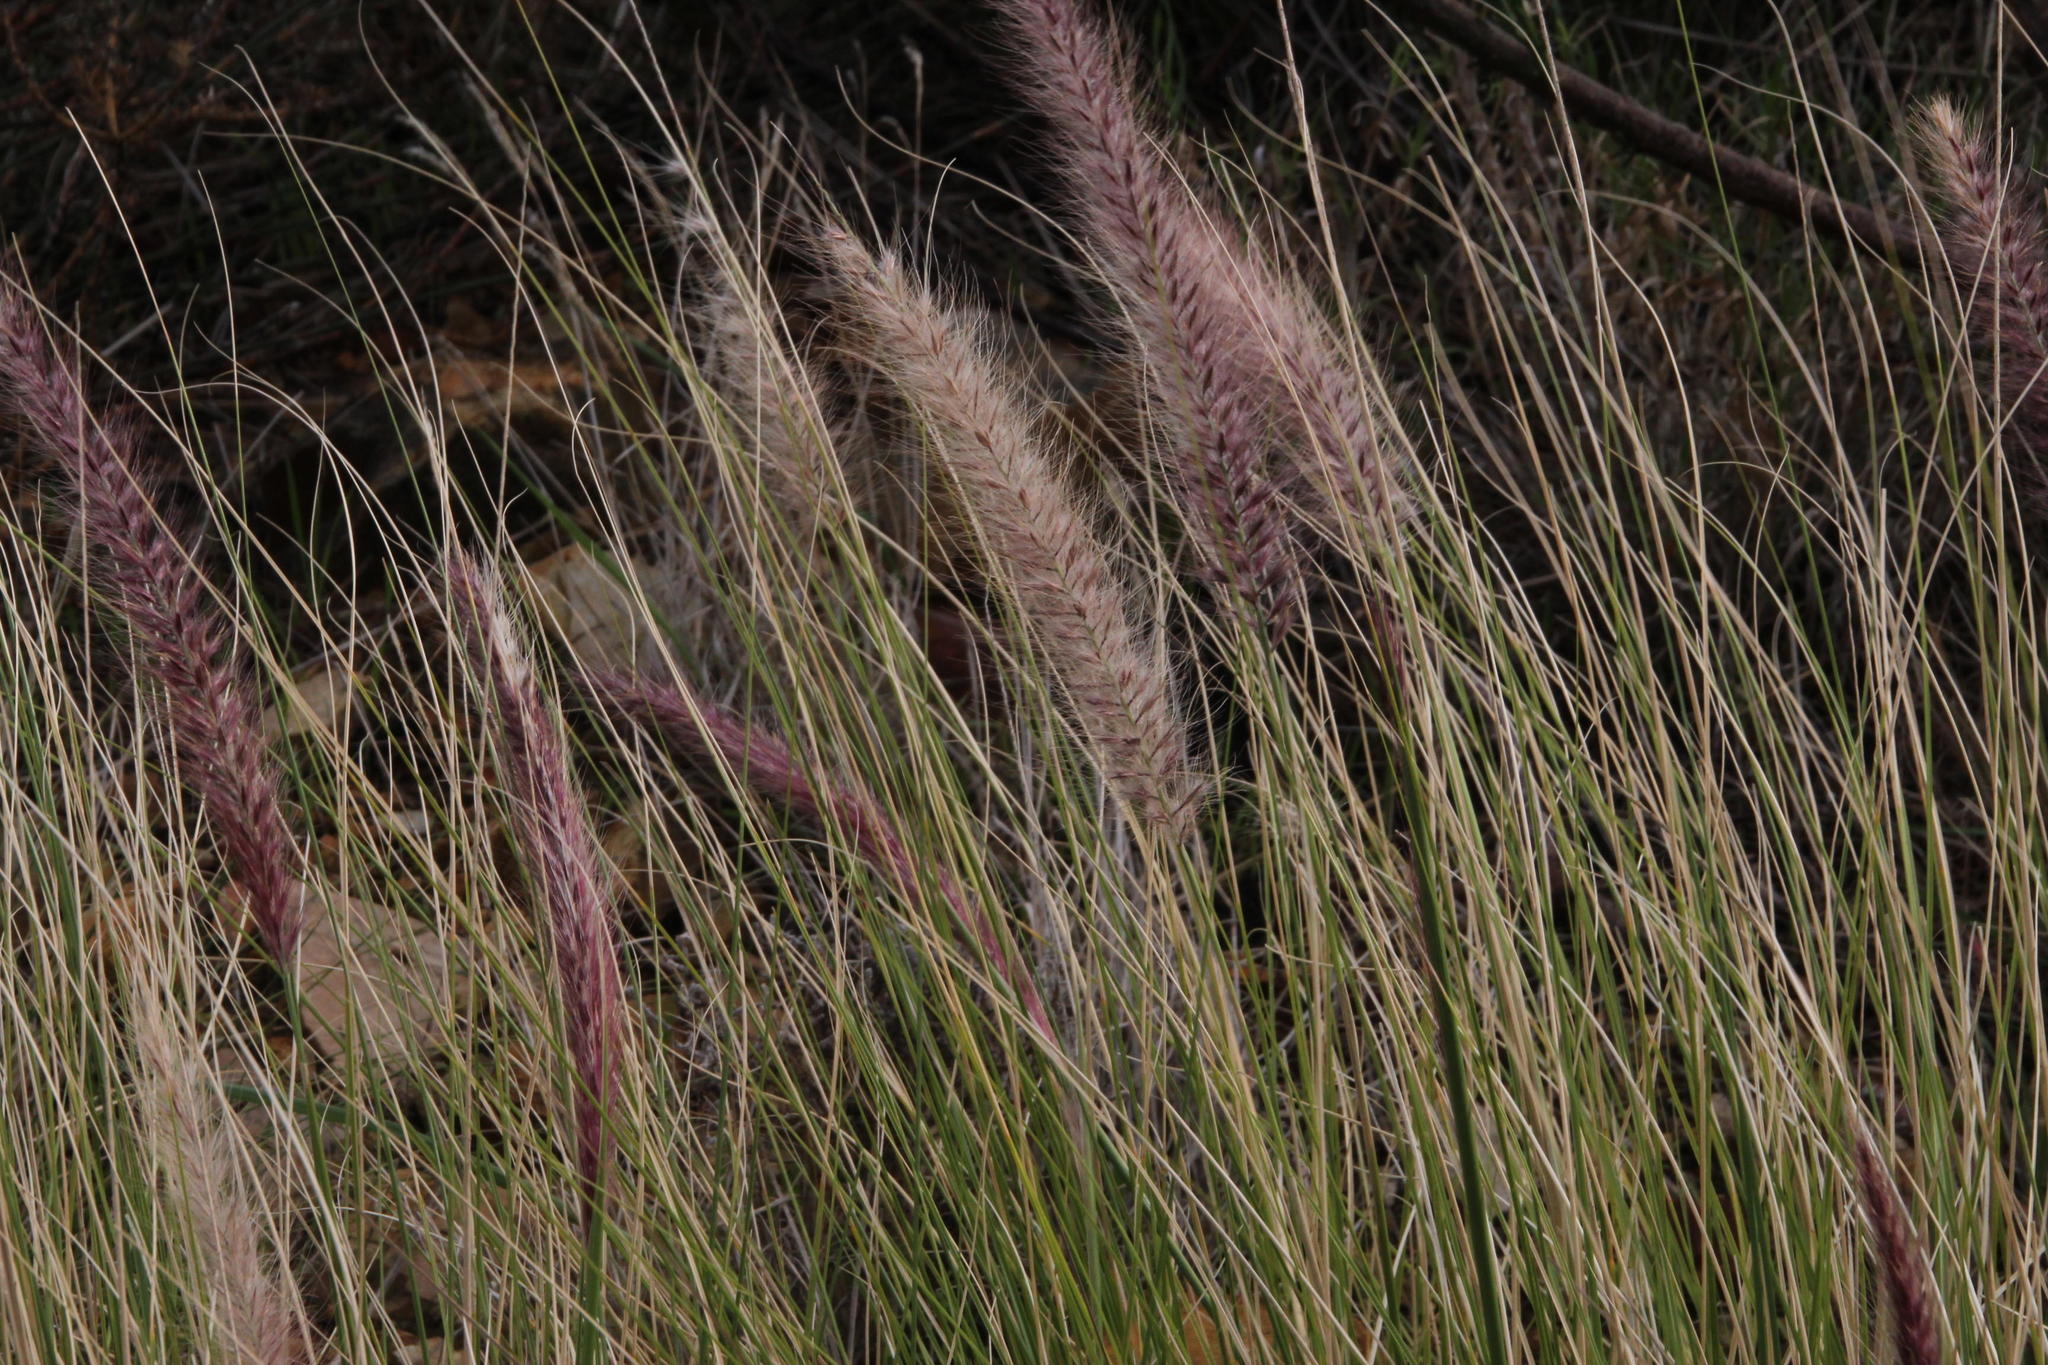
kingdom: Plantae
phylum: Tracheophyta
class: Liliopsida
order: Poales
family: Poaceae
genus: Cenchrus
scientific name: Cenchrus setaceus
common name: Crimson fountaingrass
